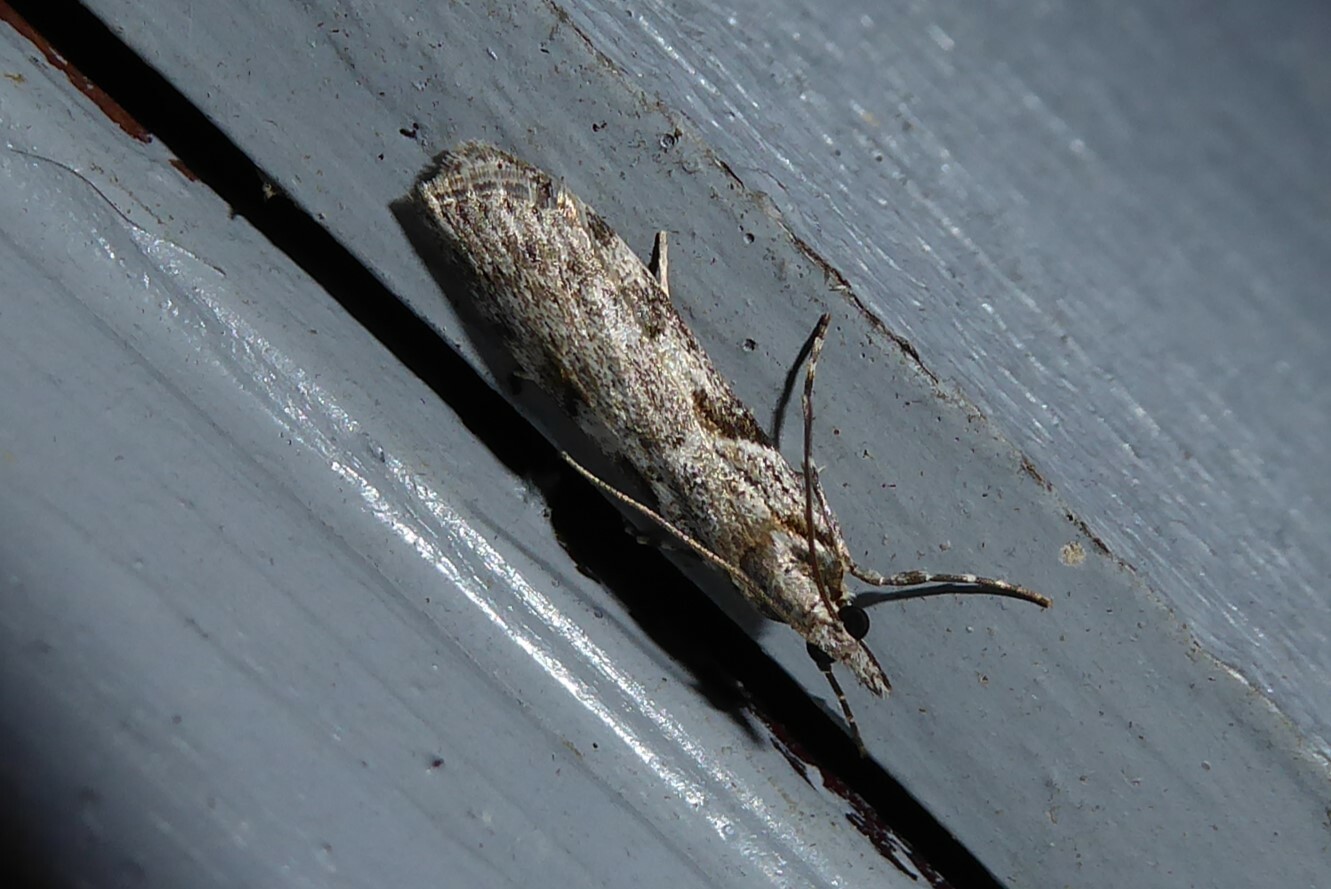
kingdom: Animalia
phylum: Arthropoda
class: Insecta
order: Lepidoptera
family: Crambidae
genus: Scoparia
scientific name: Scoparia halopis
